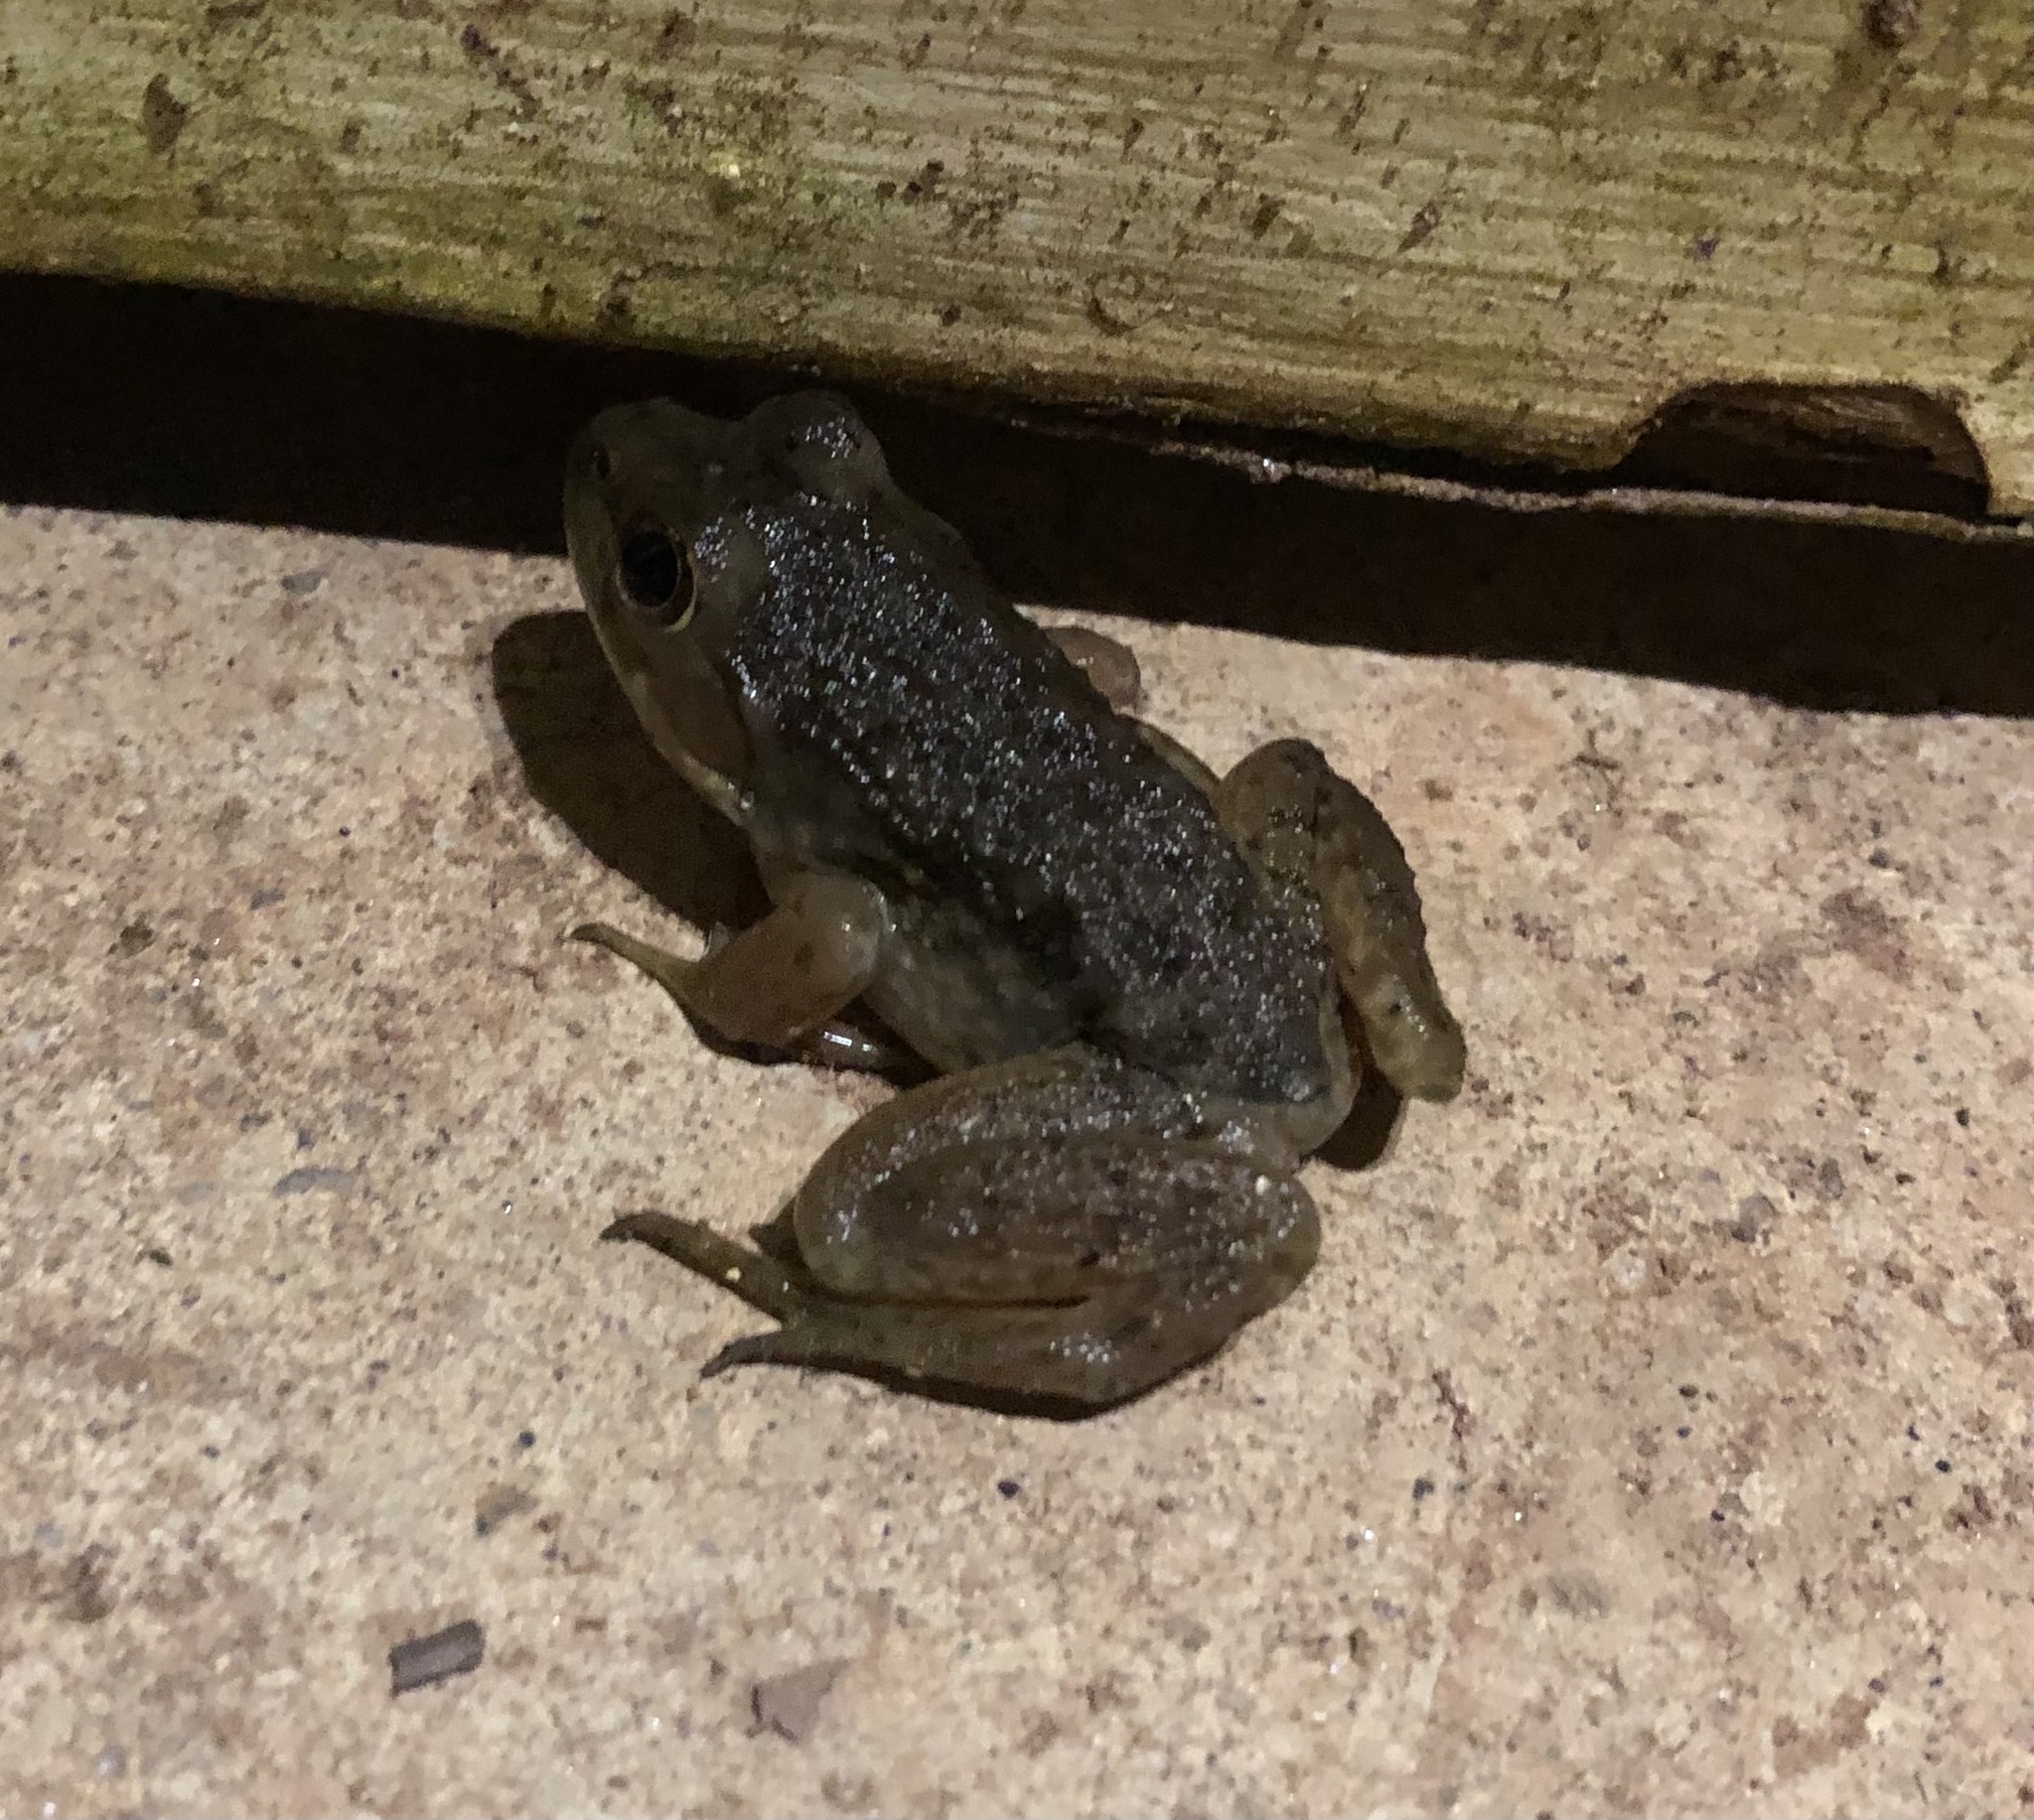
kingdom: Animalia
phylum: Chordata
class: Amphibia
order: Anura
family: Ranidae
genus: Lithobates
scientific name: Lithobates clamitans
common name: Green frog
